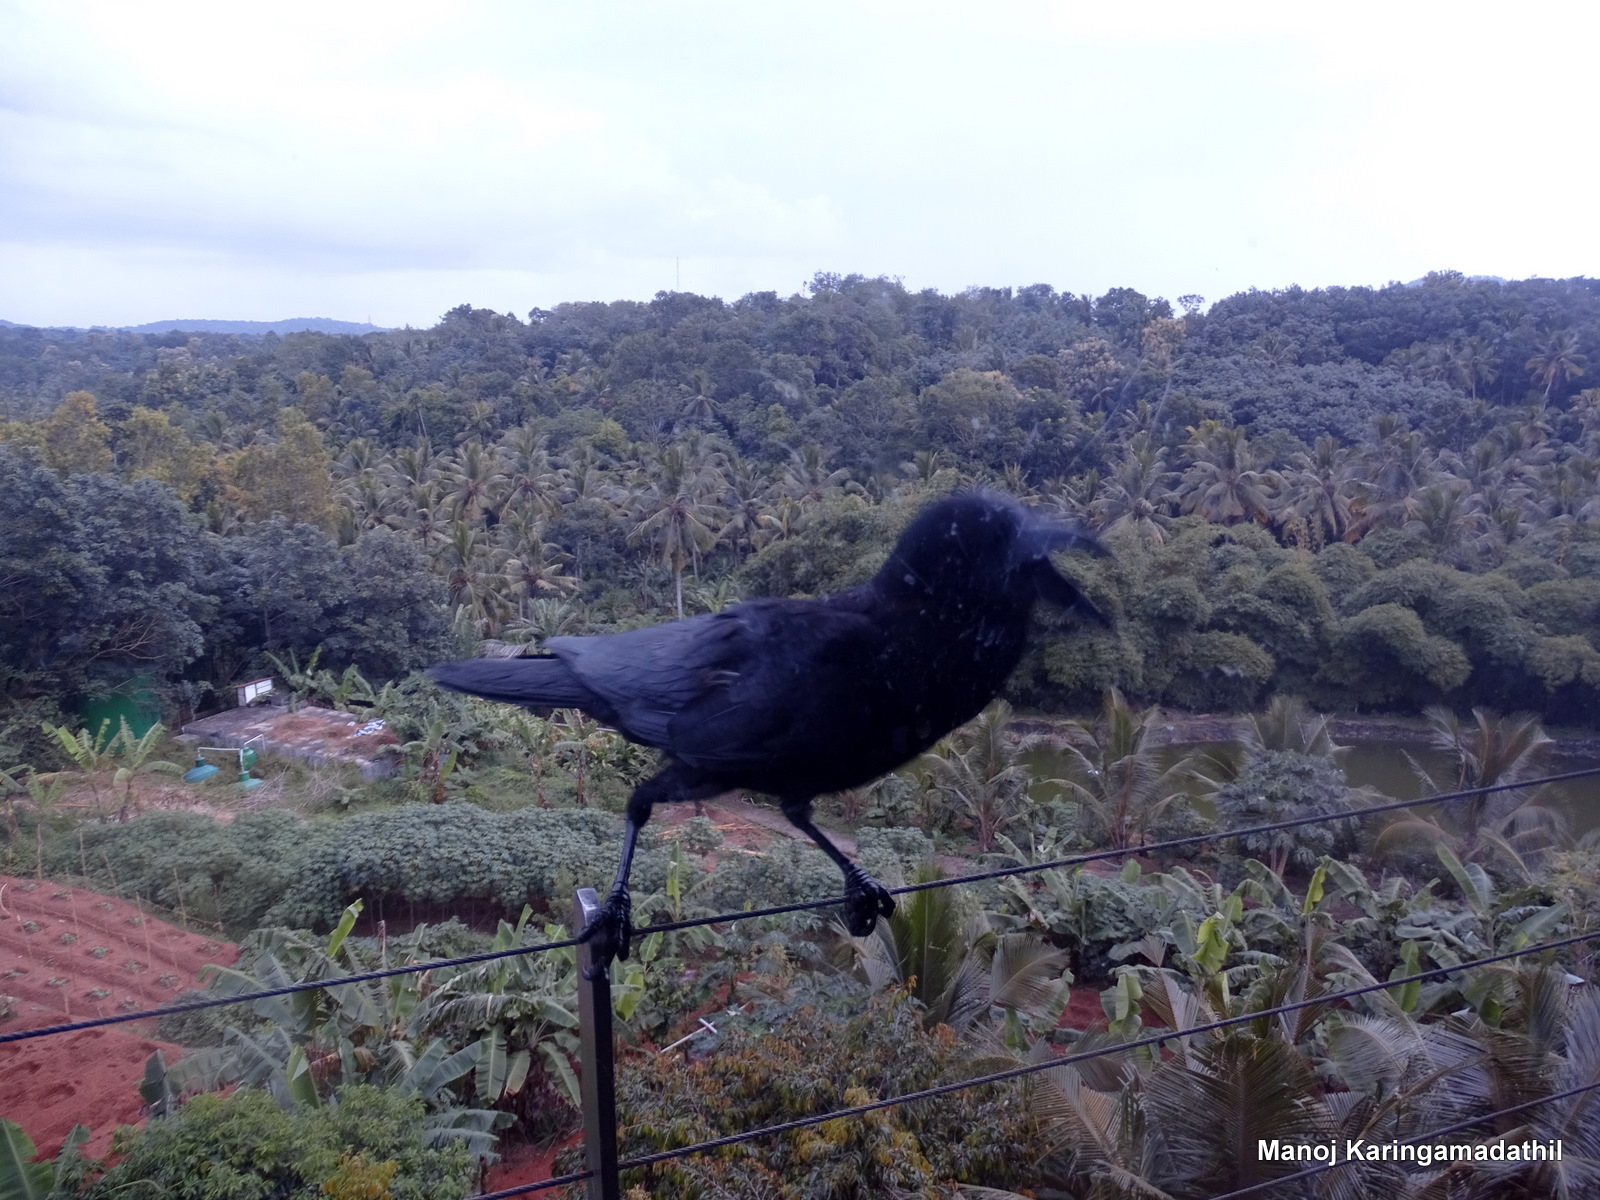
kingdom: Animalia
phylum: Chordata
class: Aves
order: Passeriformes
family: Corvidae
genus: Corvus
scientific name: Corvus macrorhynchos
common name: Large-billed crow
